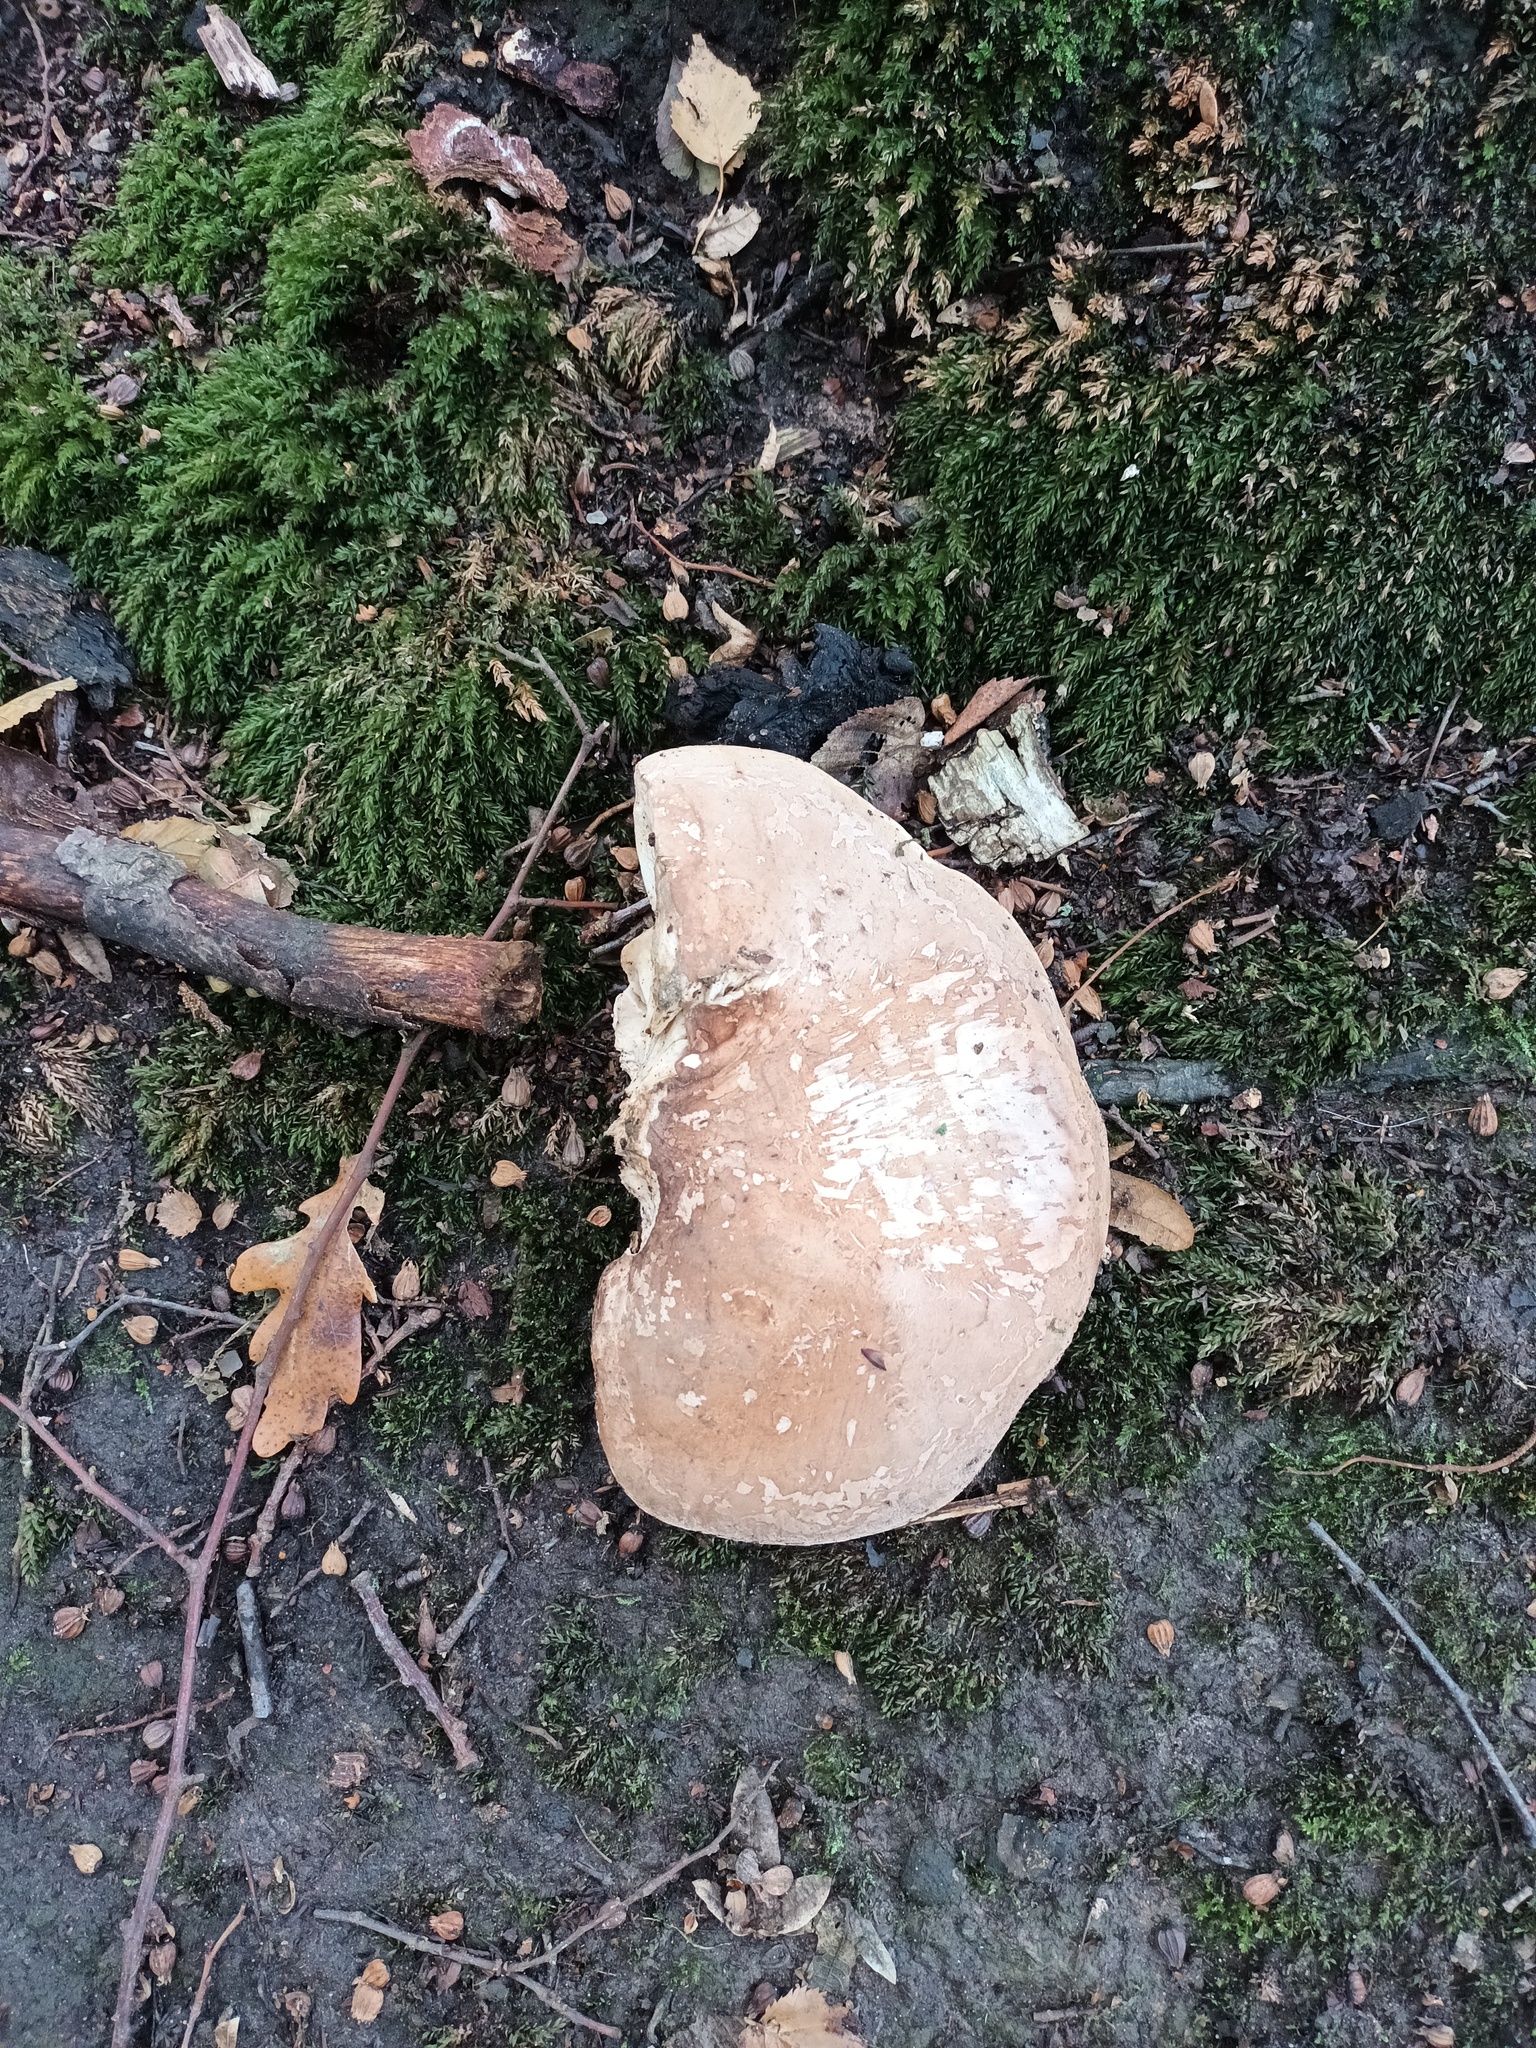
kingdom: Fungi
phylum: Basidiomycota
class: Agaricomycetes
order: Polyporales
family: Fomitopsidaceae
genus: Fomitopsis
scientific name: Fomitopsis betulina
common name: Birch polypore
